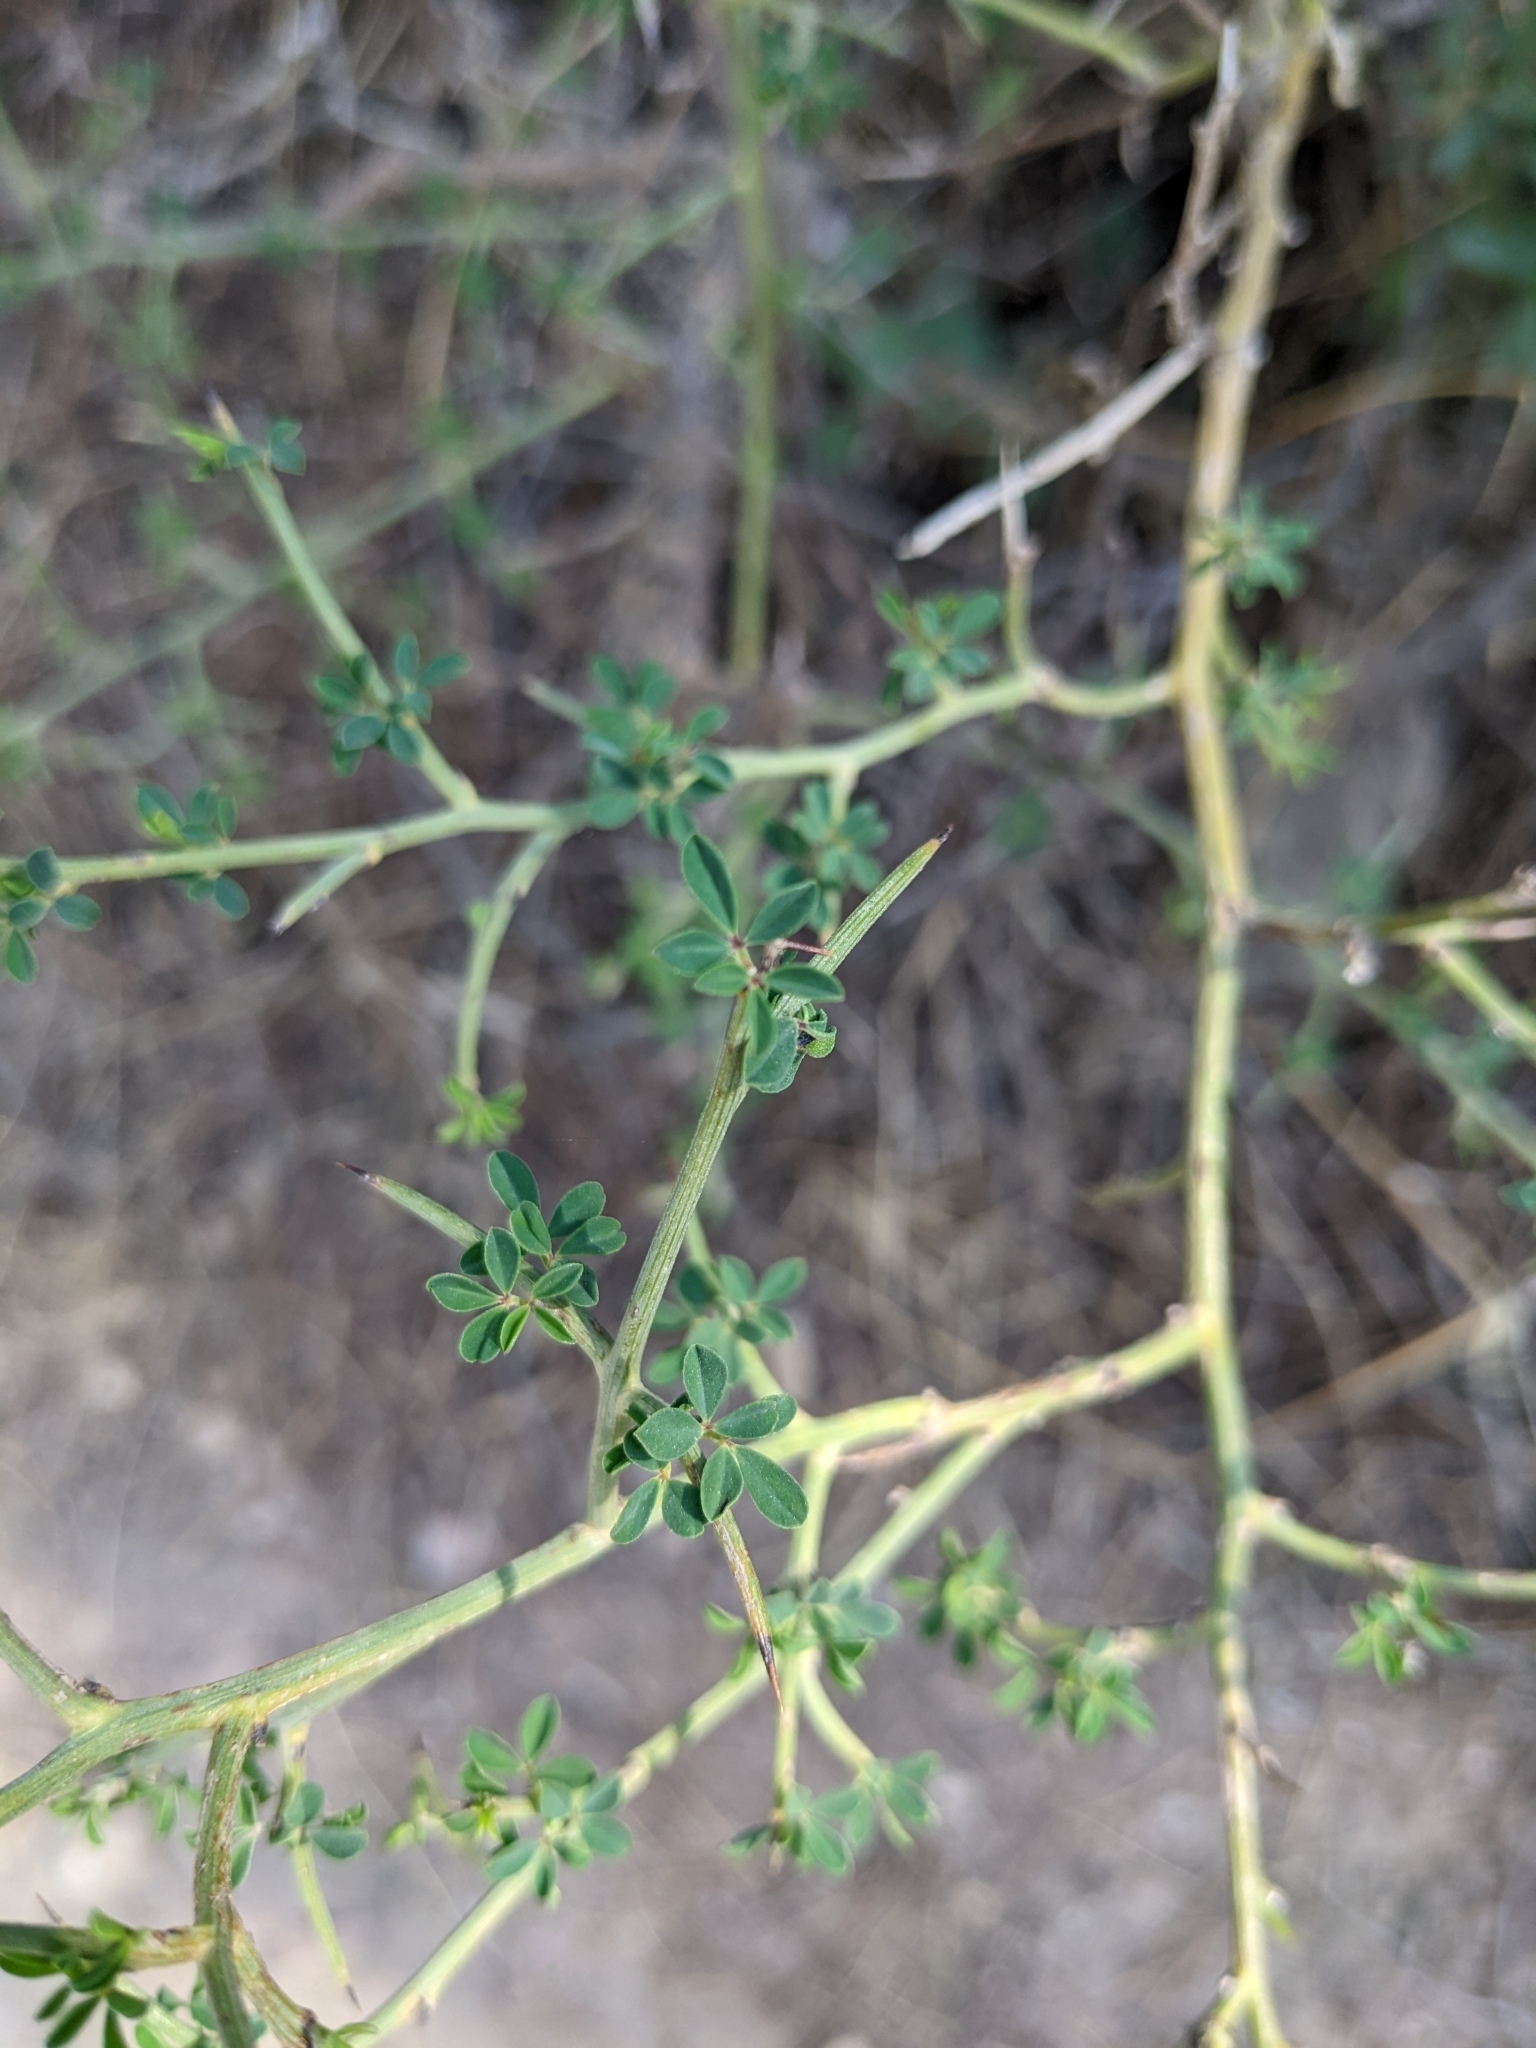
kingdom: Plantae
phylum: Tracheophyta
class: Magnoliopsida
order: Fabales
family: Fabaceae
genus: Calicotome
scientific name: Calicotome spinosa
